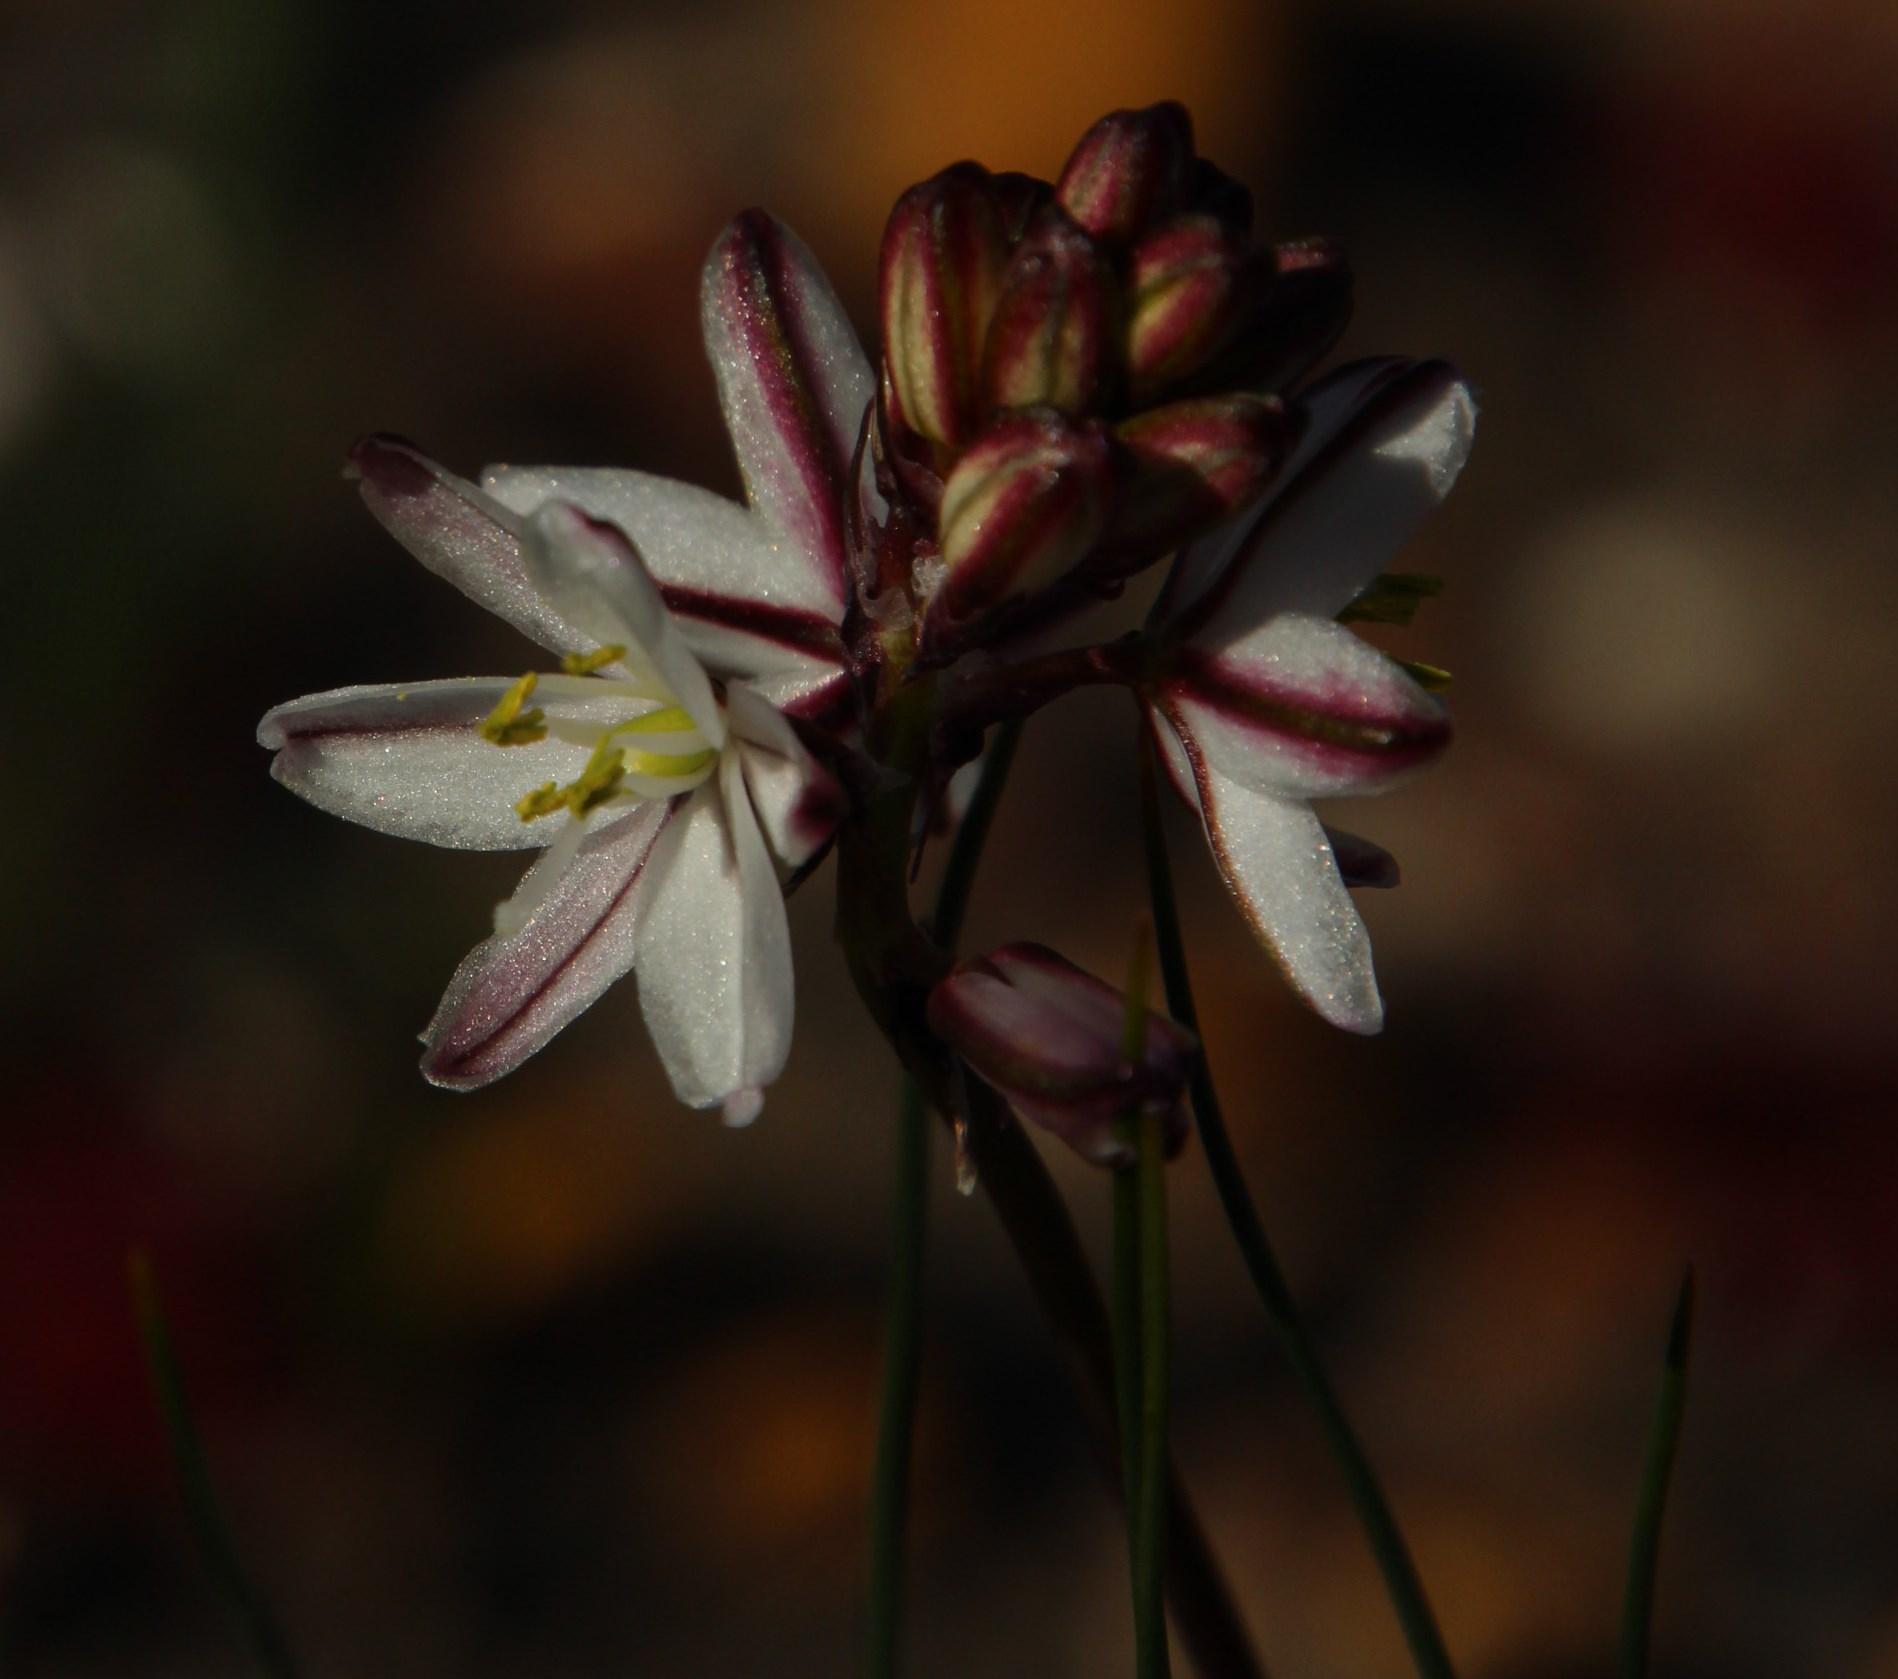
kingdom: Plantae
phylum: Tracheophyta
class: Liliopsida
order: Asparagales
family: Asparagaceae
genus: Drimia
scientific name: Drimia exuviata
